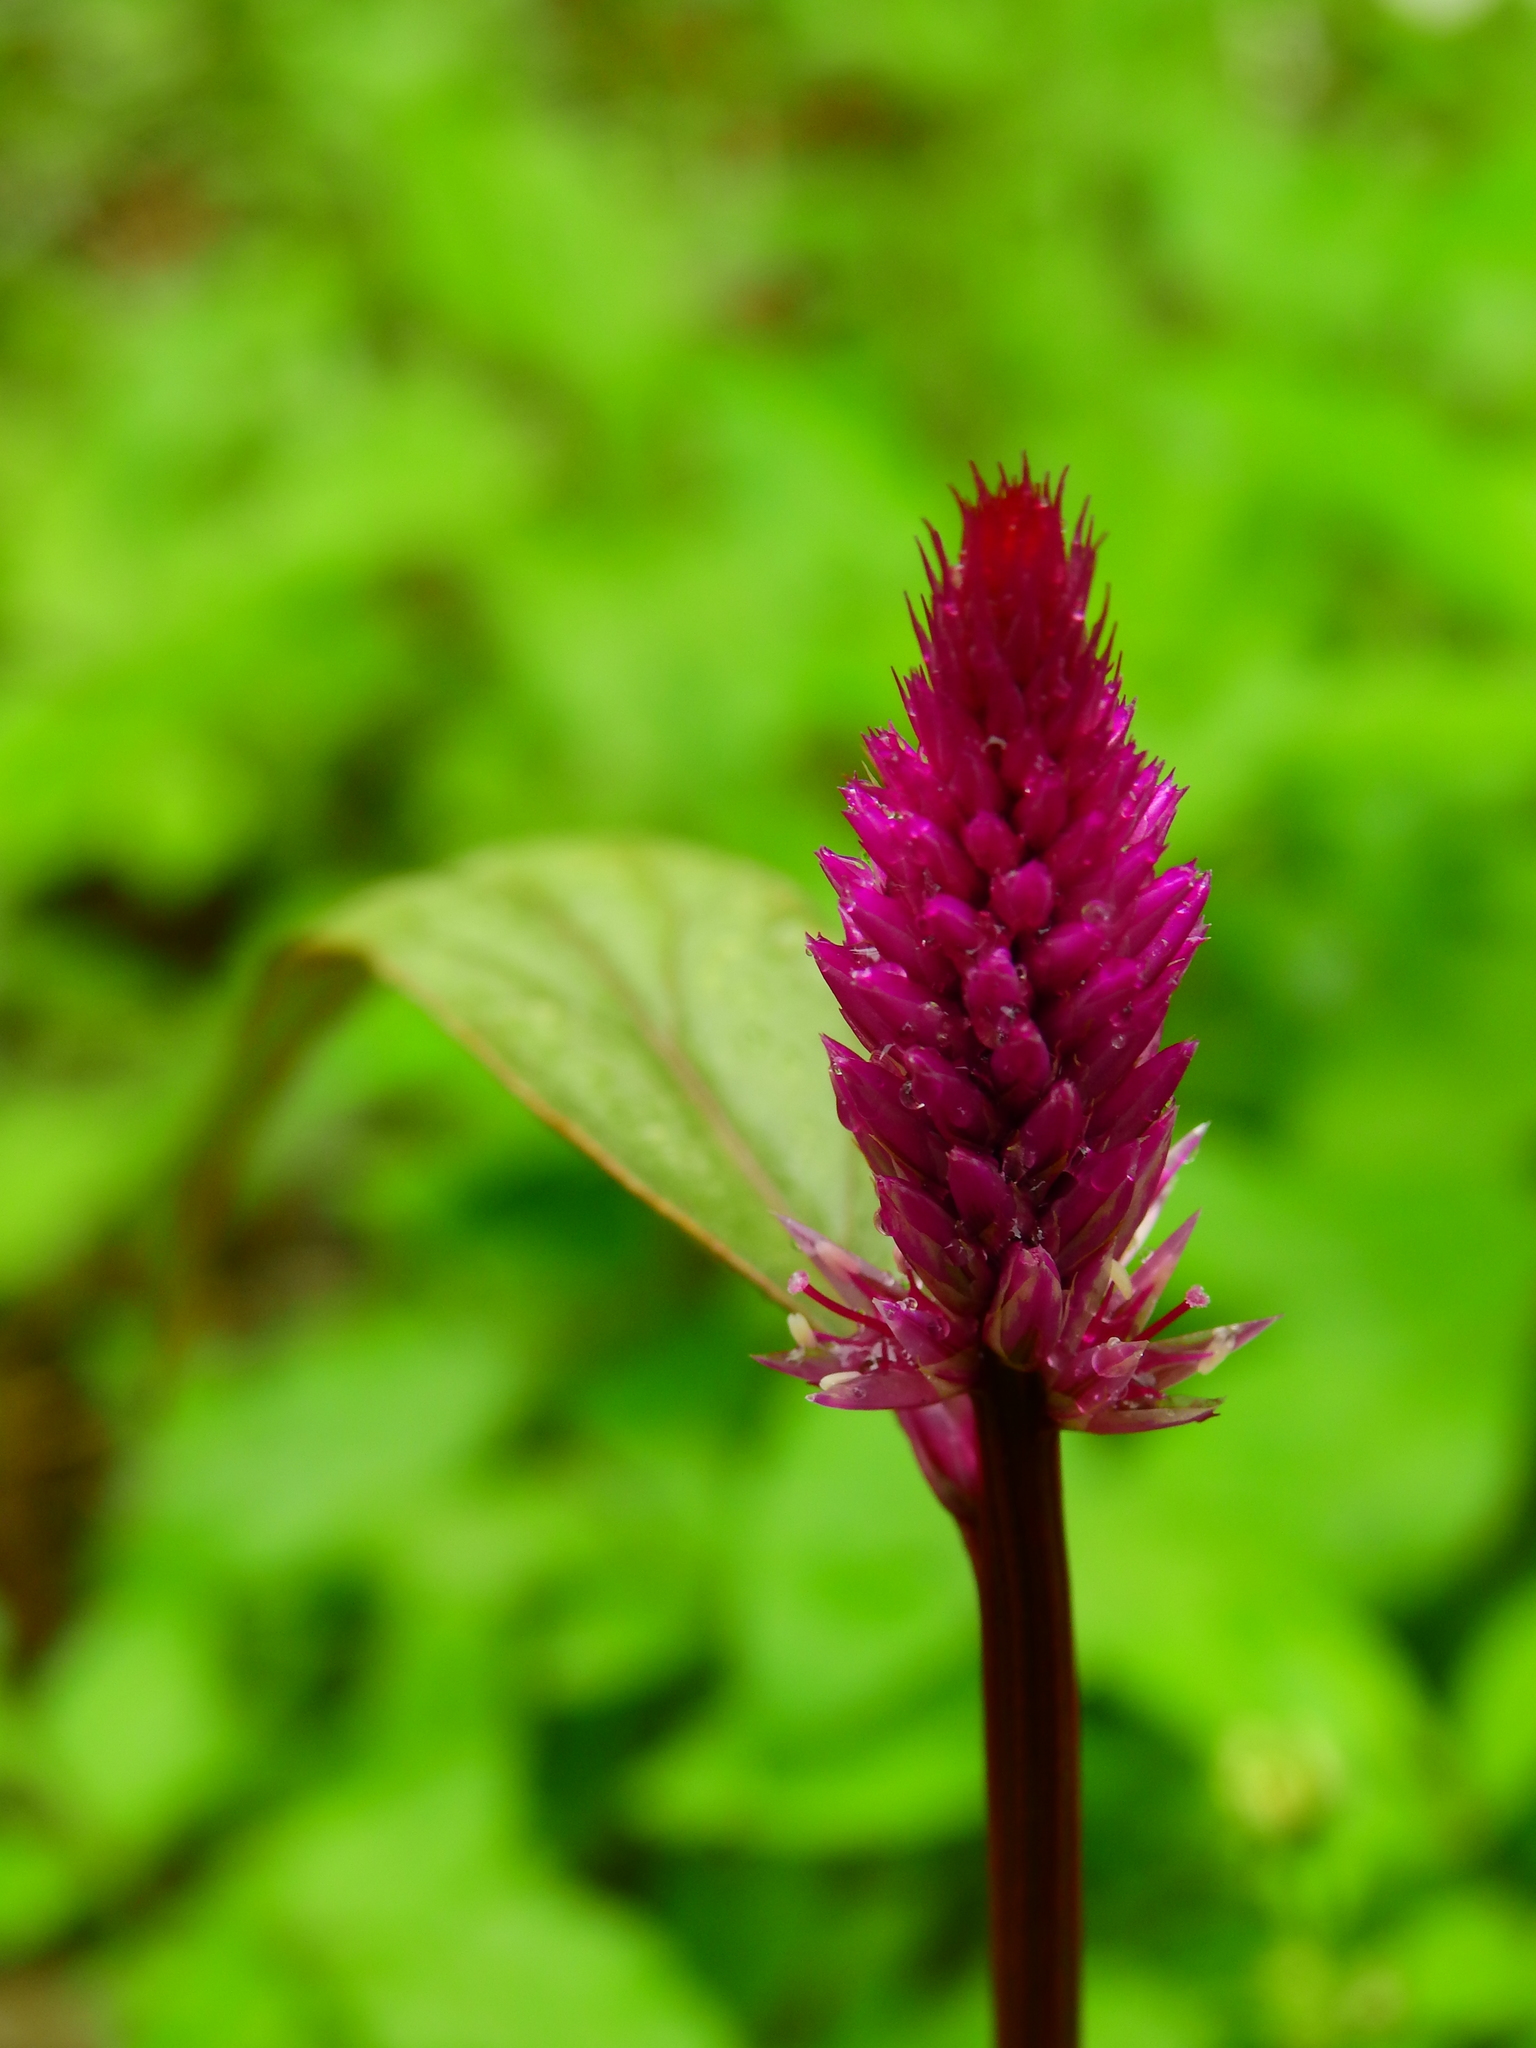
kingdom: Plantae
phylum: Tracheophyta
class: Magnoliopsida
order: Caryophyllales
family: Amaranthaceae
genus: Celosia
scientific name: Celosia argentea
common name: Feather cockscomb
